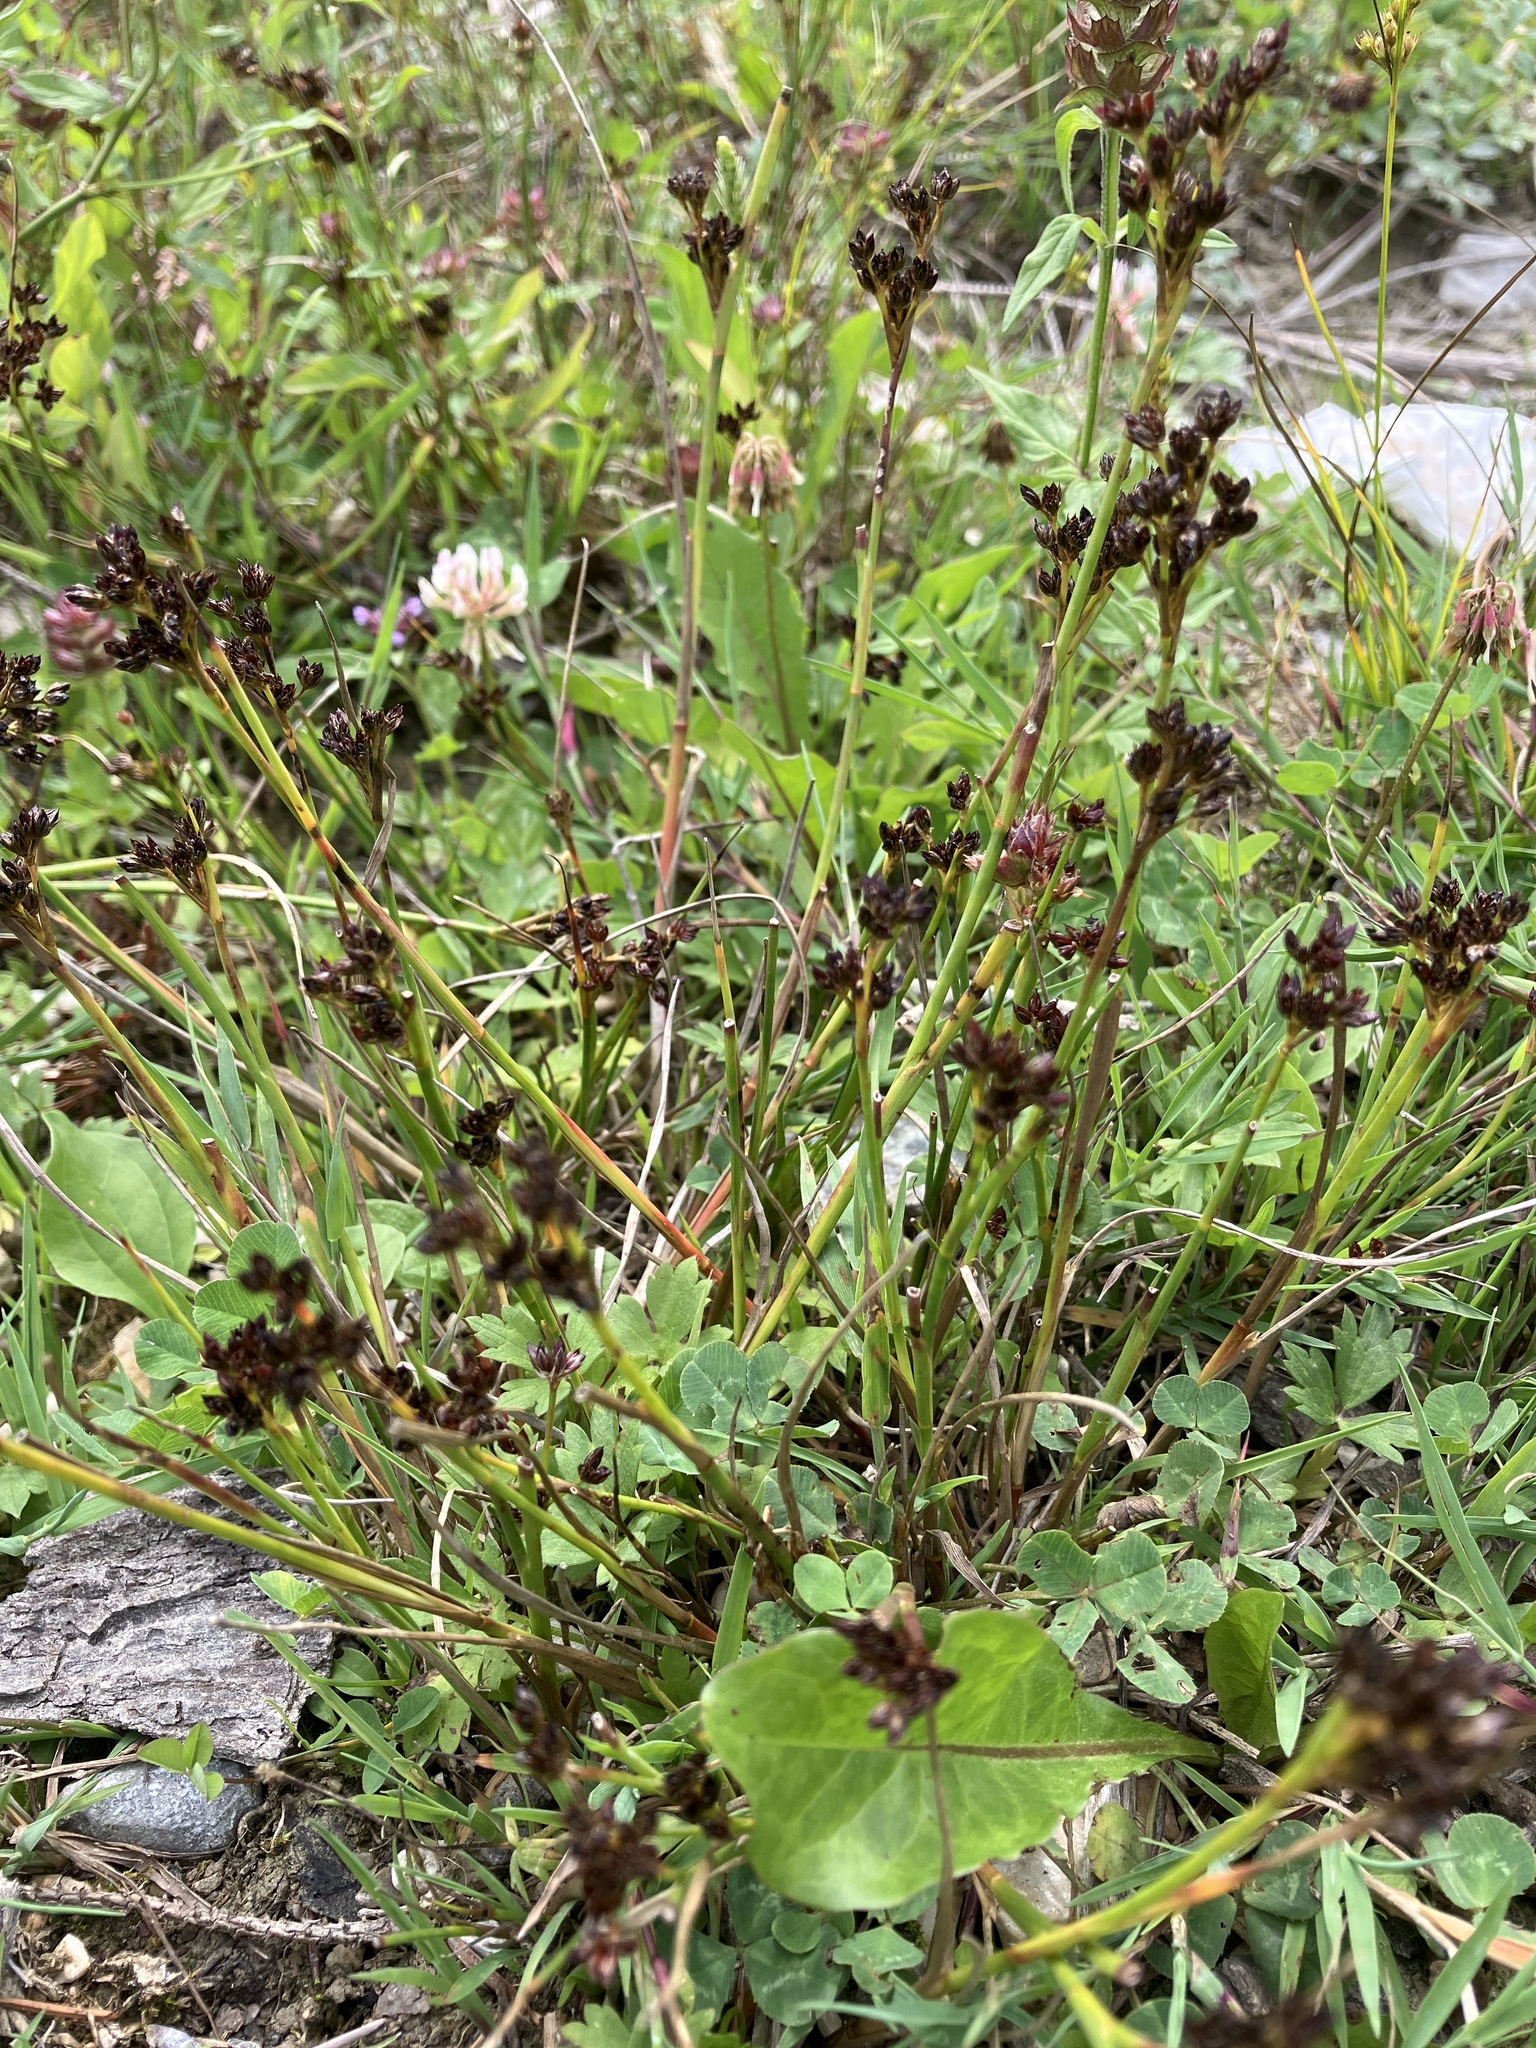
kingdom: Plantae
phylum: Tracheophyta
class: Liliopsida
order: Poales
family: Juncaceae
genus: Juncus
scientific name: Juncus articulatus
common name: Jointed rush
